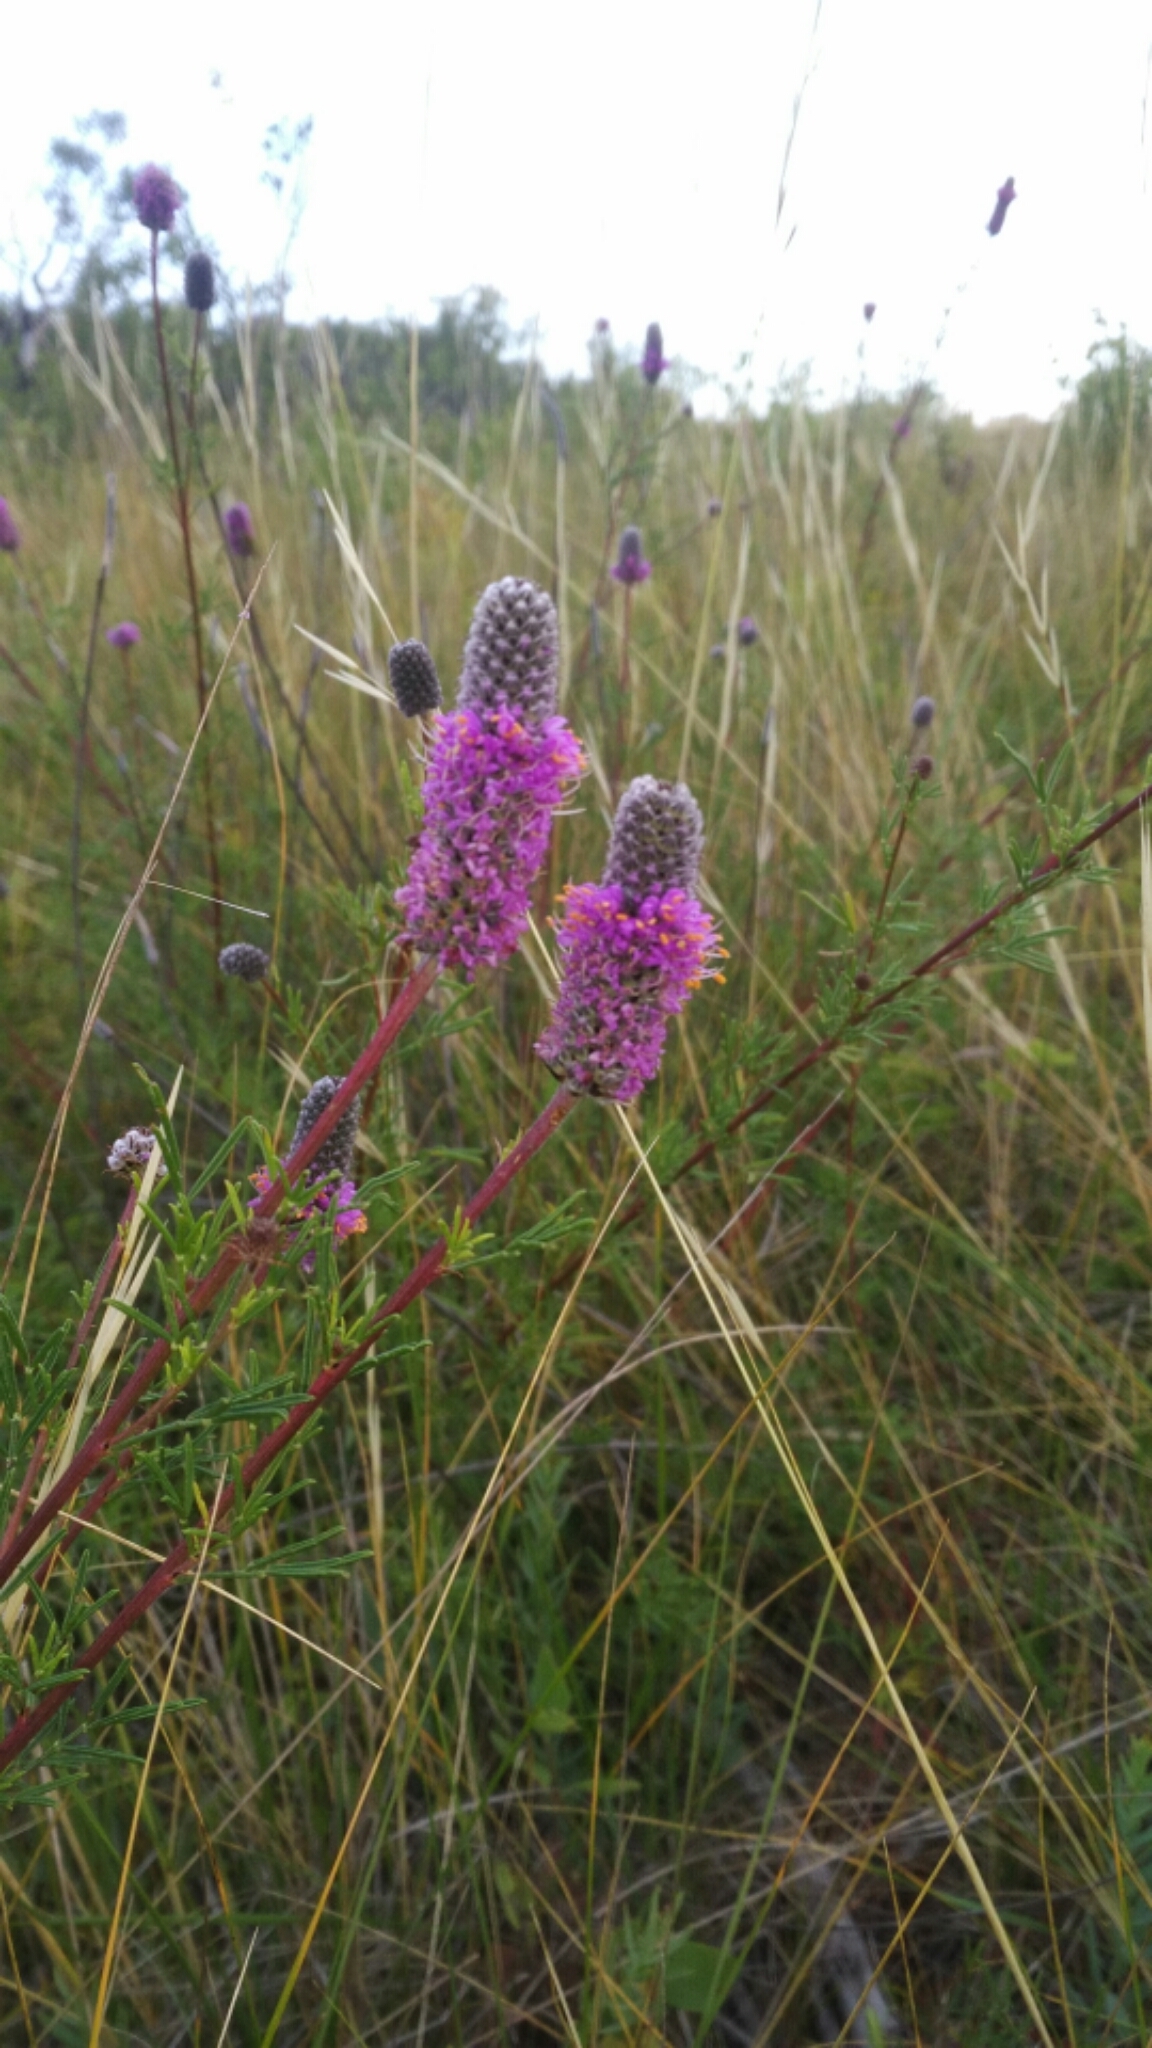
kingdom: Plantae
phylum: Tracheophyta
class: Magnoliopsida
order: Fabales
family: Fabaceae
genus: Dalea
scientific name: Dalea purpurea
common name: Purple prairie-clover
